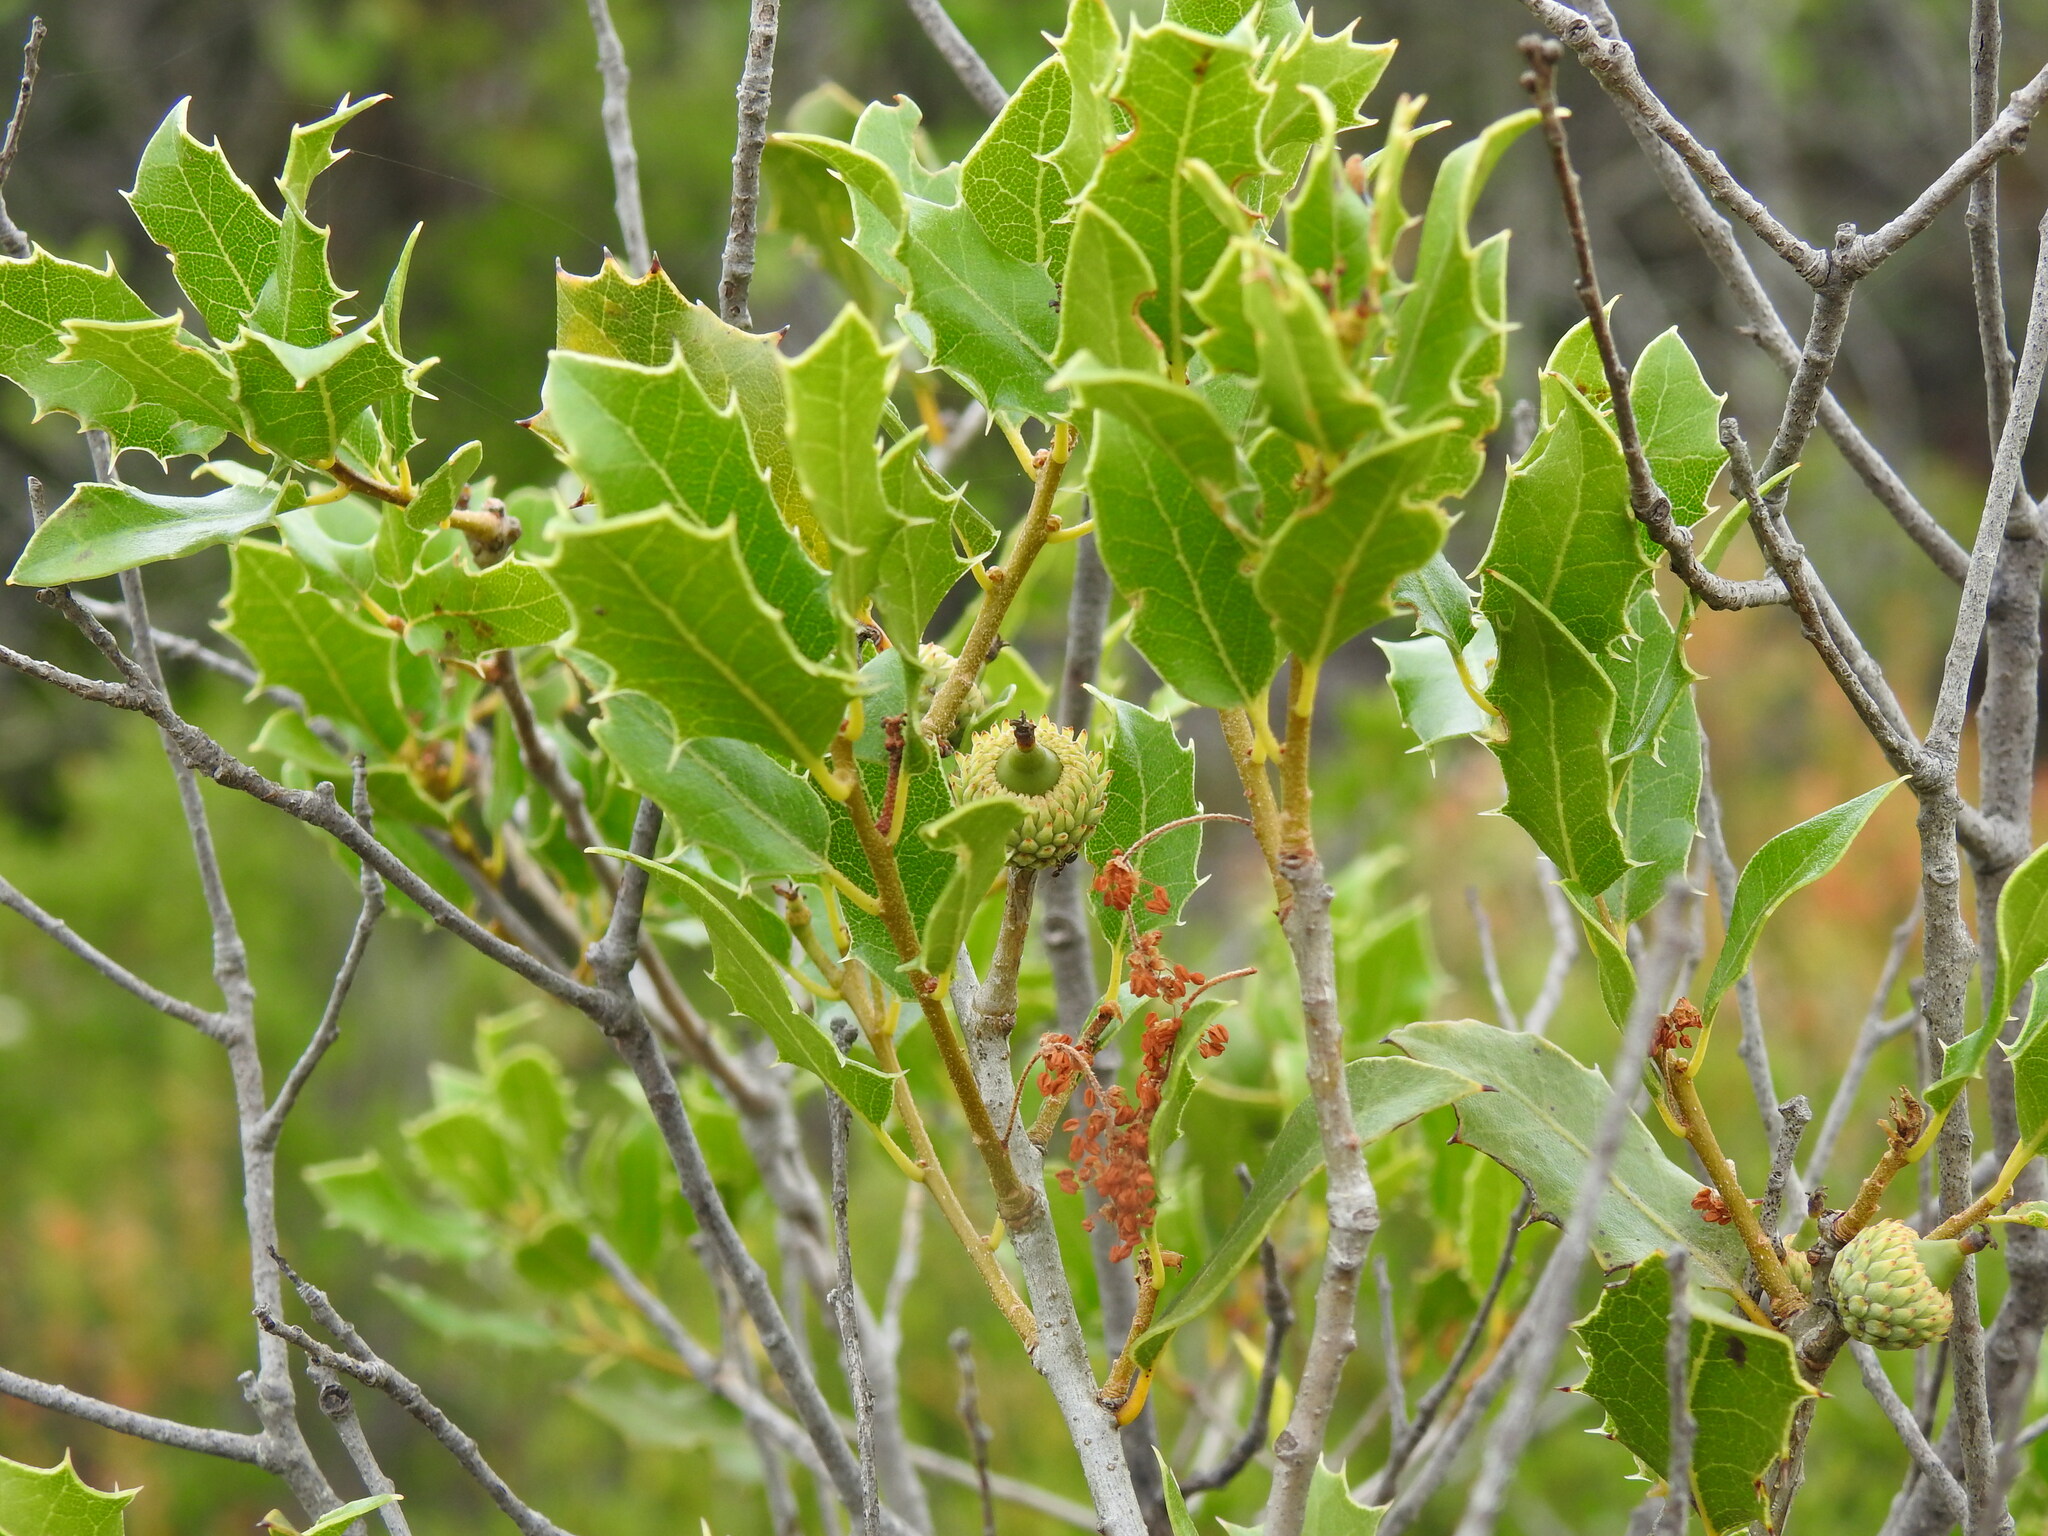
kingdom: Plantae
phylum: Tracheophyta
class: Magnoliopsida
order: Fagales
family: Fagaceae
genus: Quercus
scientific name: Quercus coccifera
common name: Kermes oak
